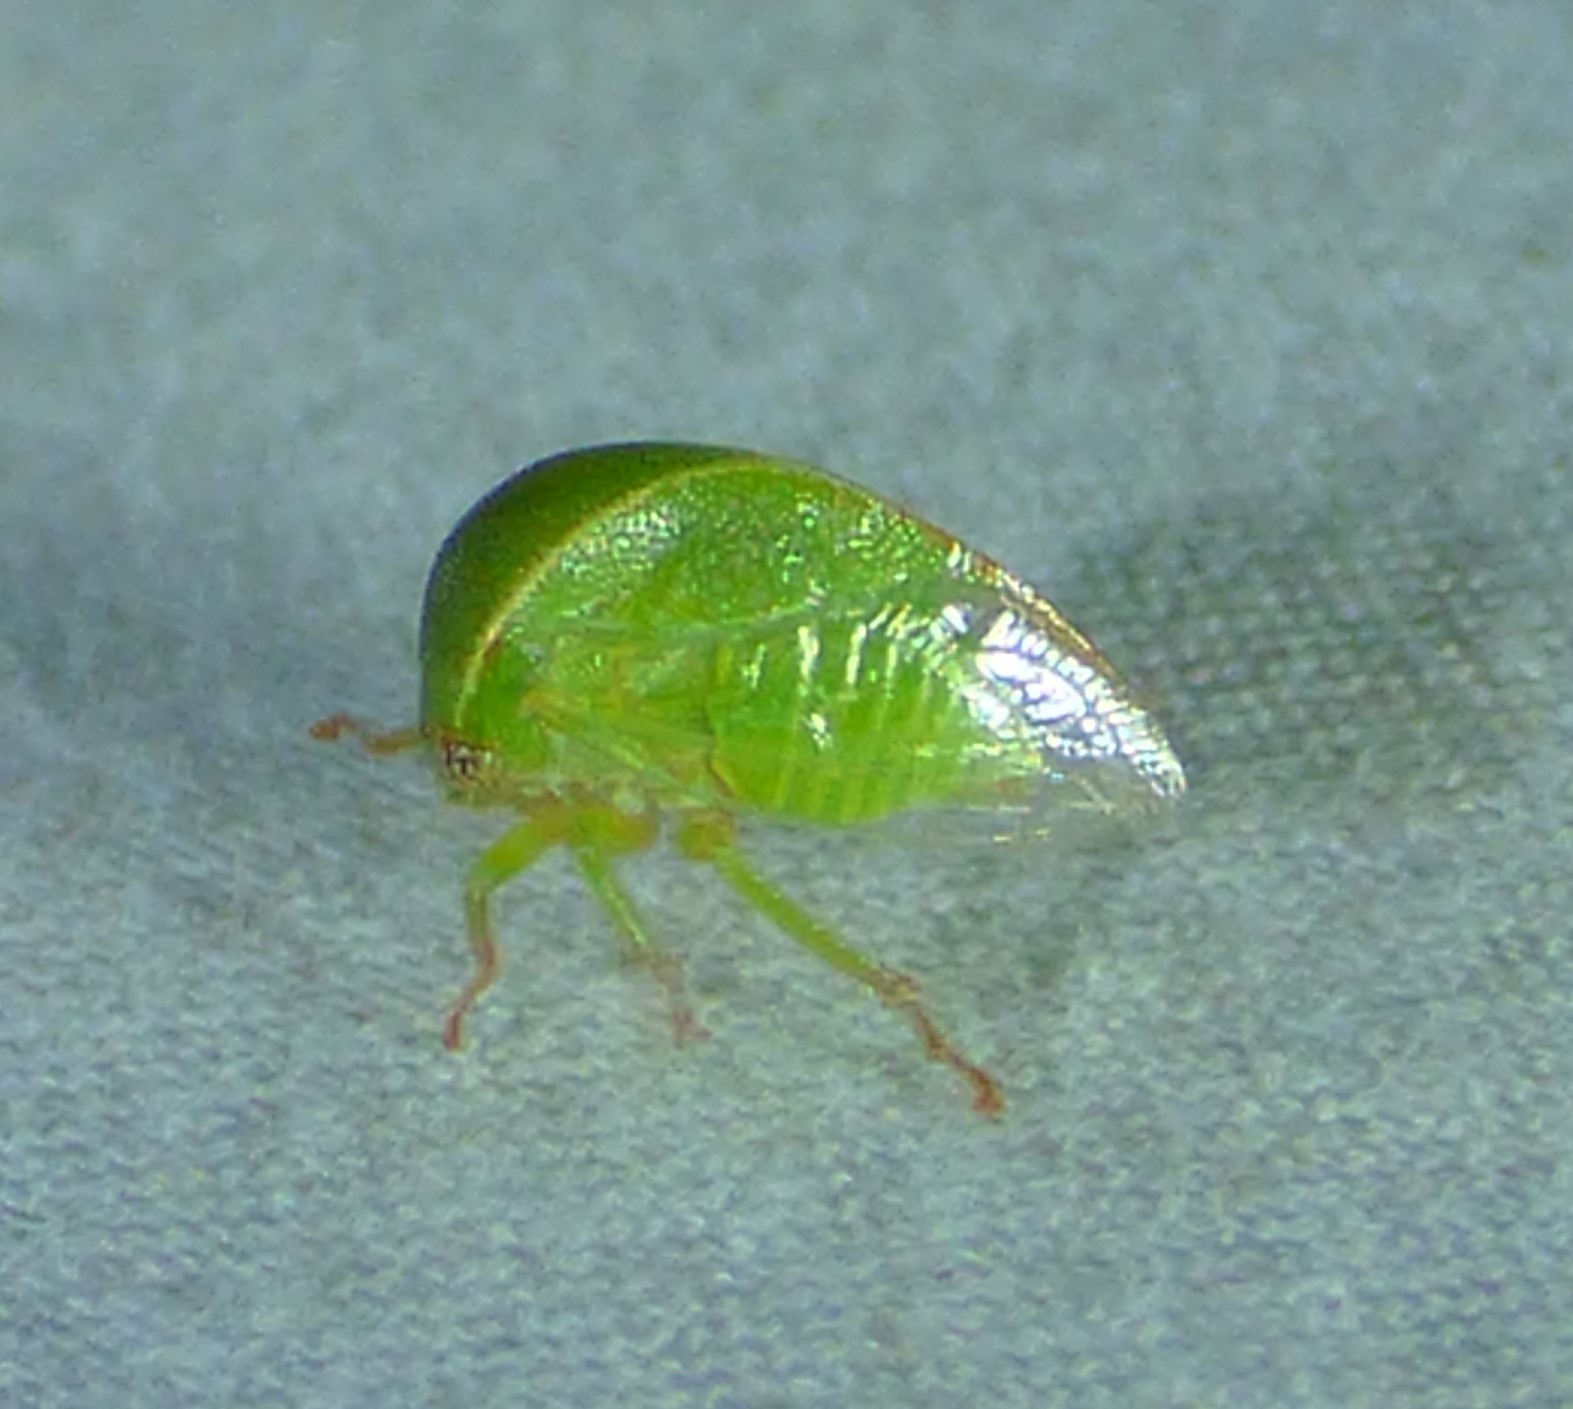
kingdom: Animalia
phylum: Arthropoda
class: Insecta
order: Hemiptera
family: Membracidae
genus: Spissistilus
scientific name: Spissistilus festina
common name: Membracid bug
